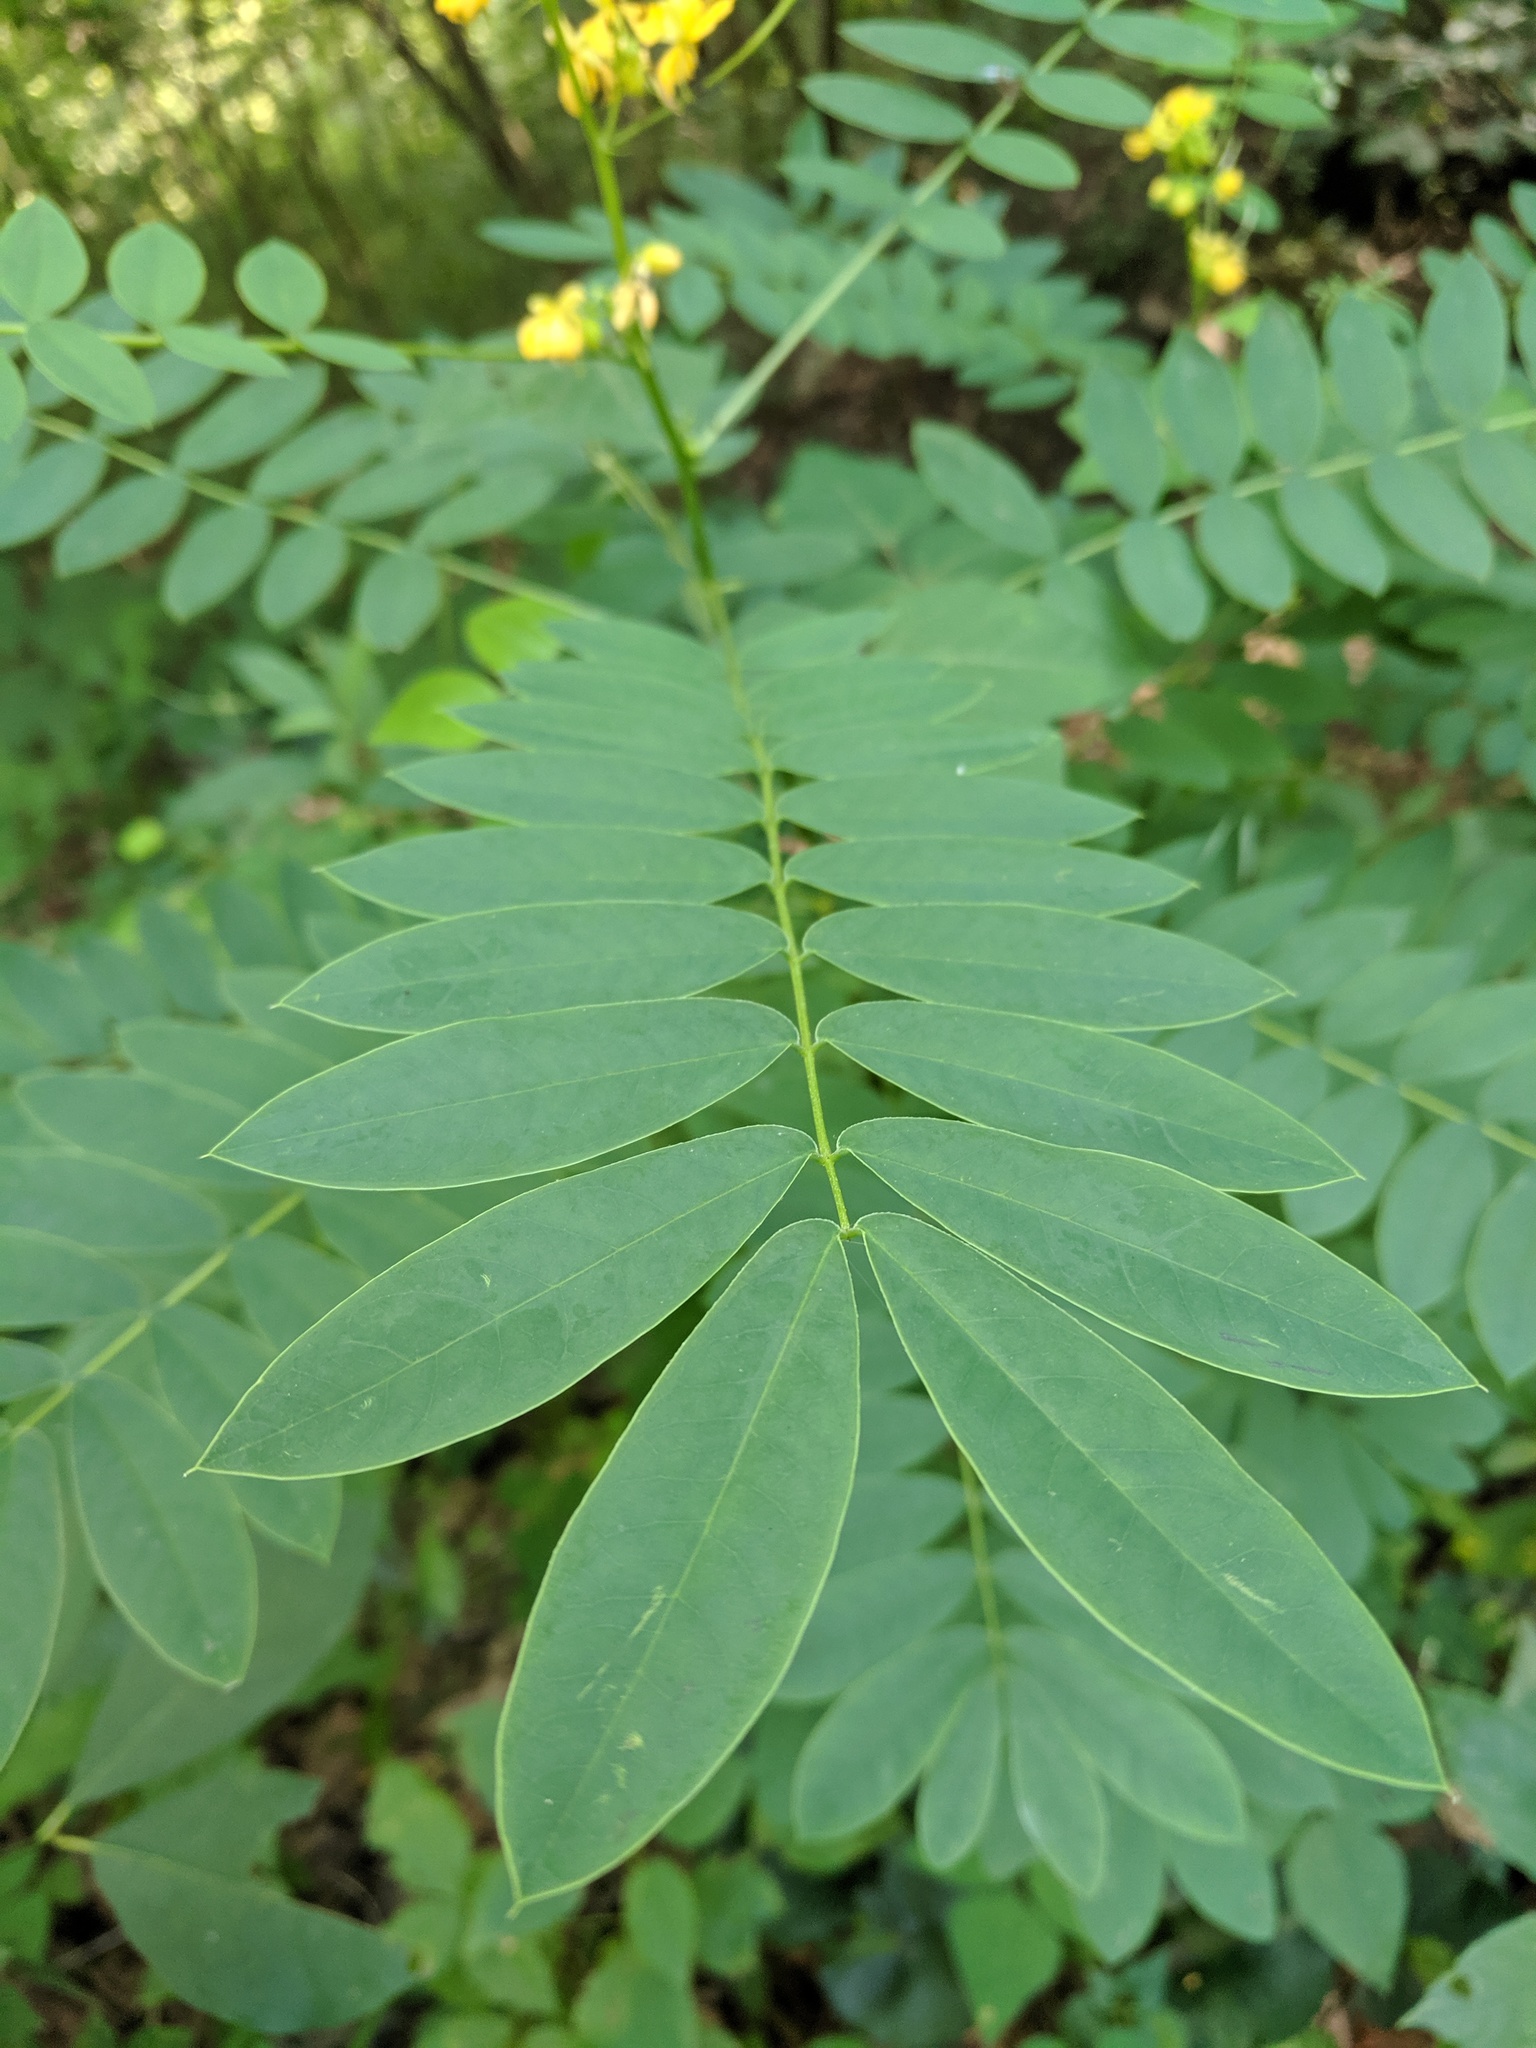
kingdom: Plantae
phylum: Tracheophyta
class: Magnoliopsida
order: Fabales
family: Fabaceae
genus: Senna
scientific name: Senna marilandica
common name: American senna
